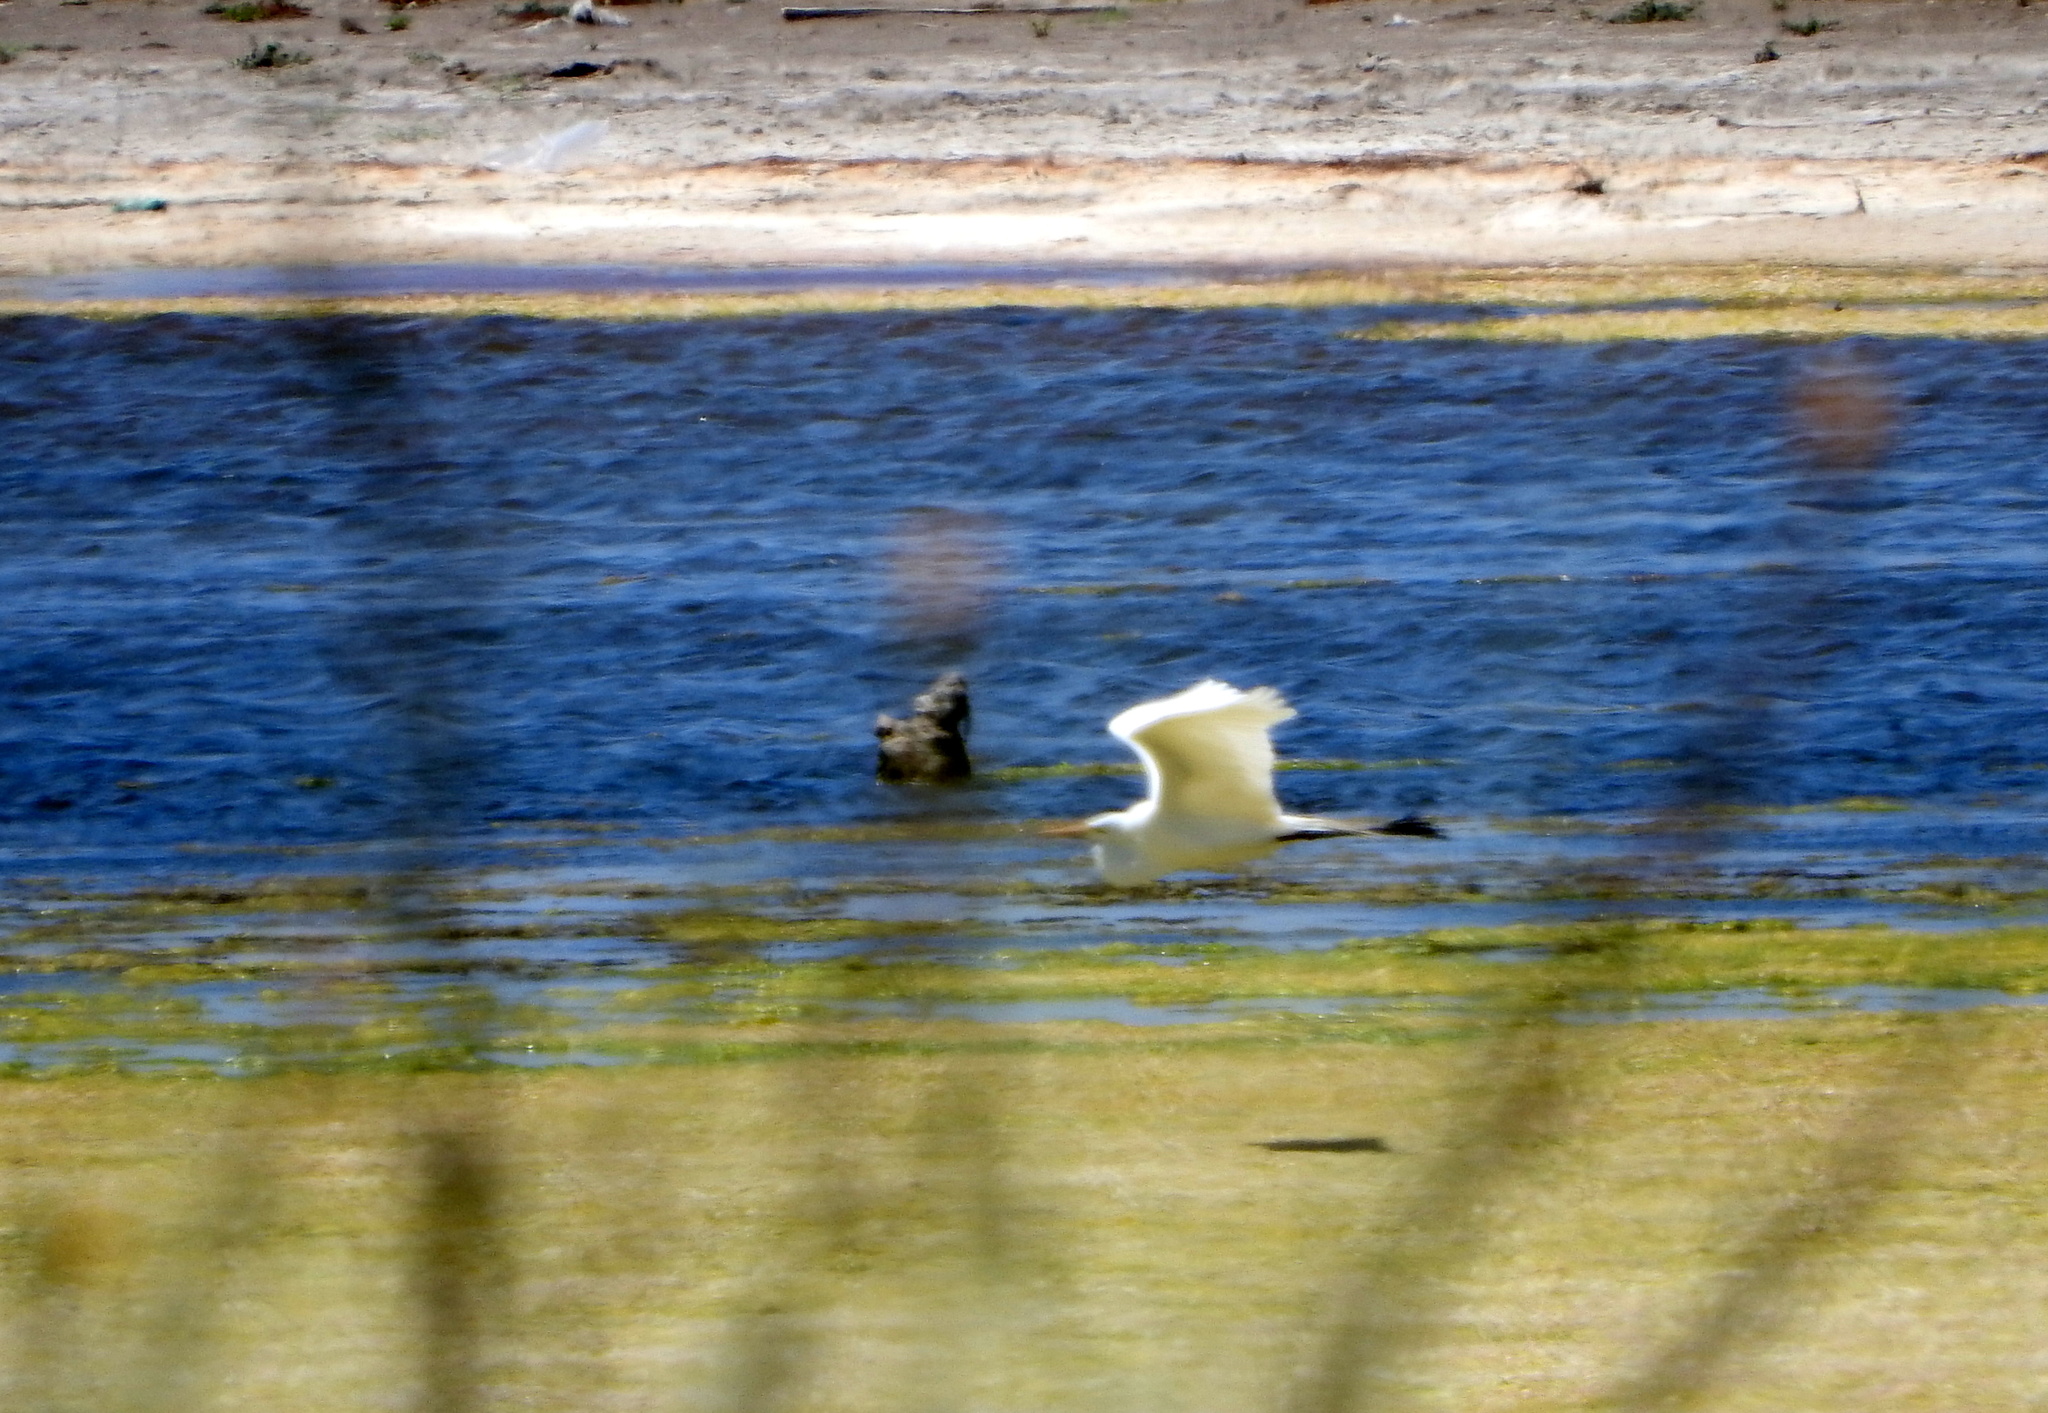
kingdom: Animalia
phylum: Chordata
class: Aves
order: Pelecaniformes
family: Ardeidae
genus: Ardea
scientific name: Ardea alba
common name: Great egret
